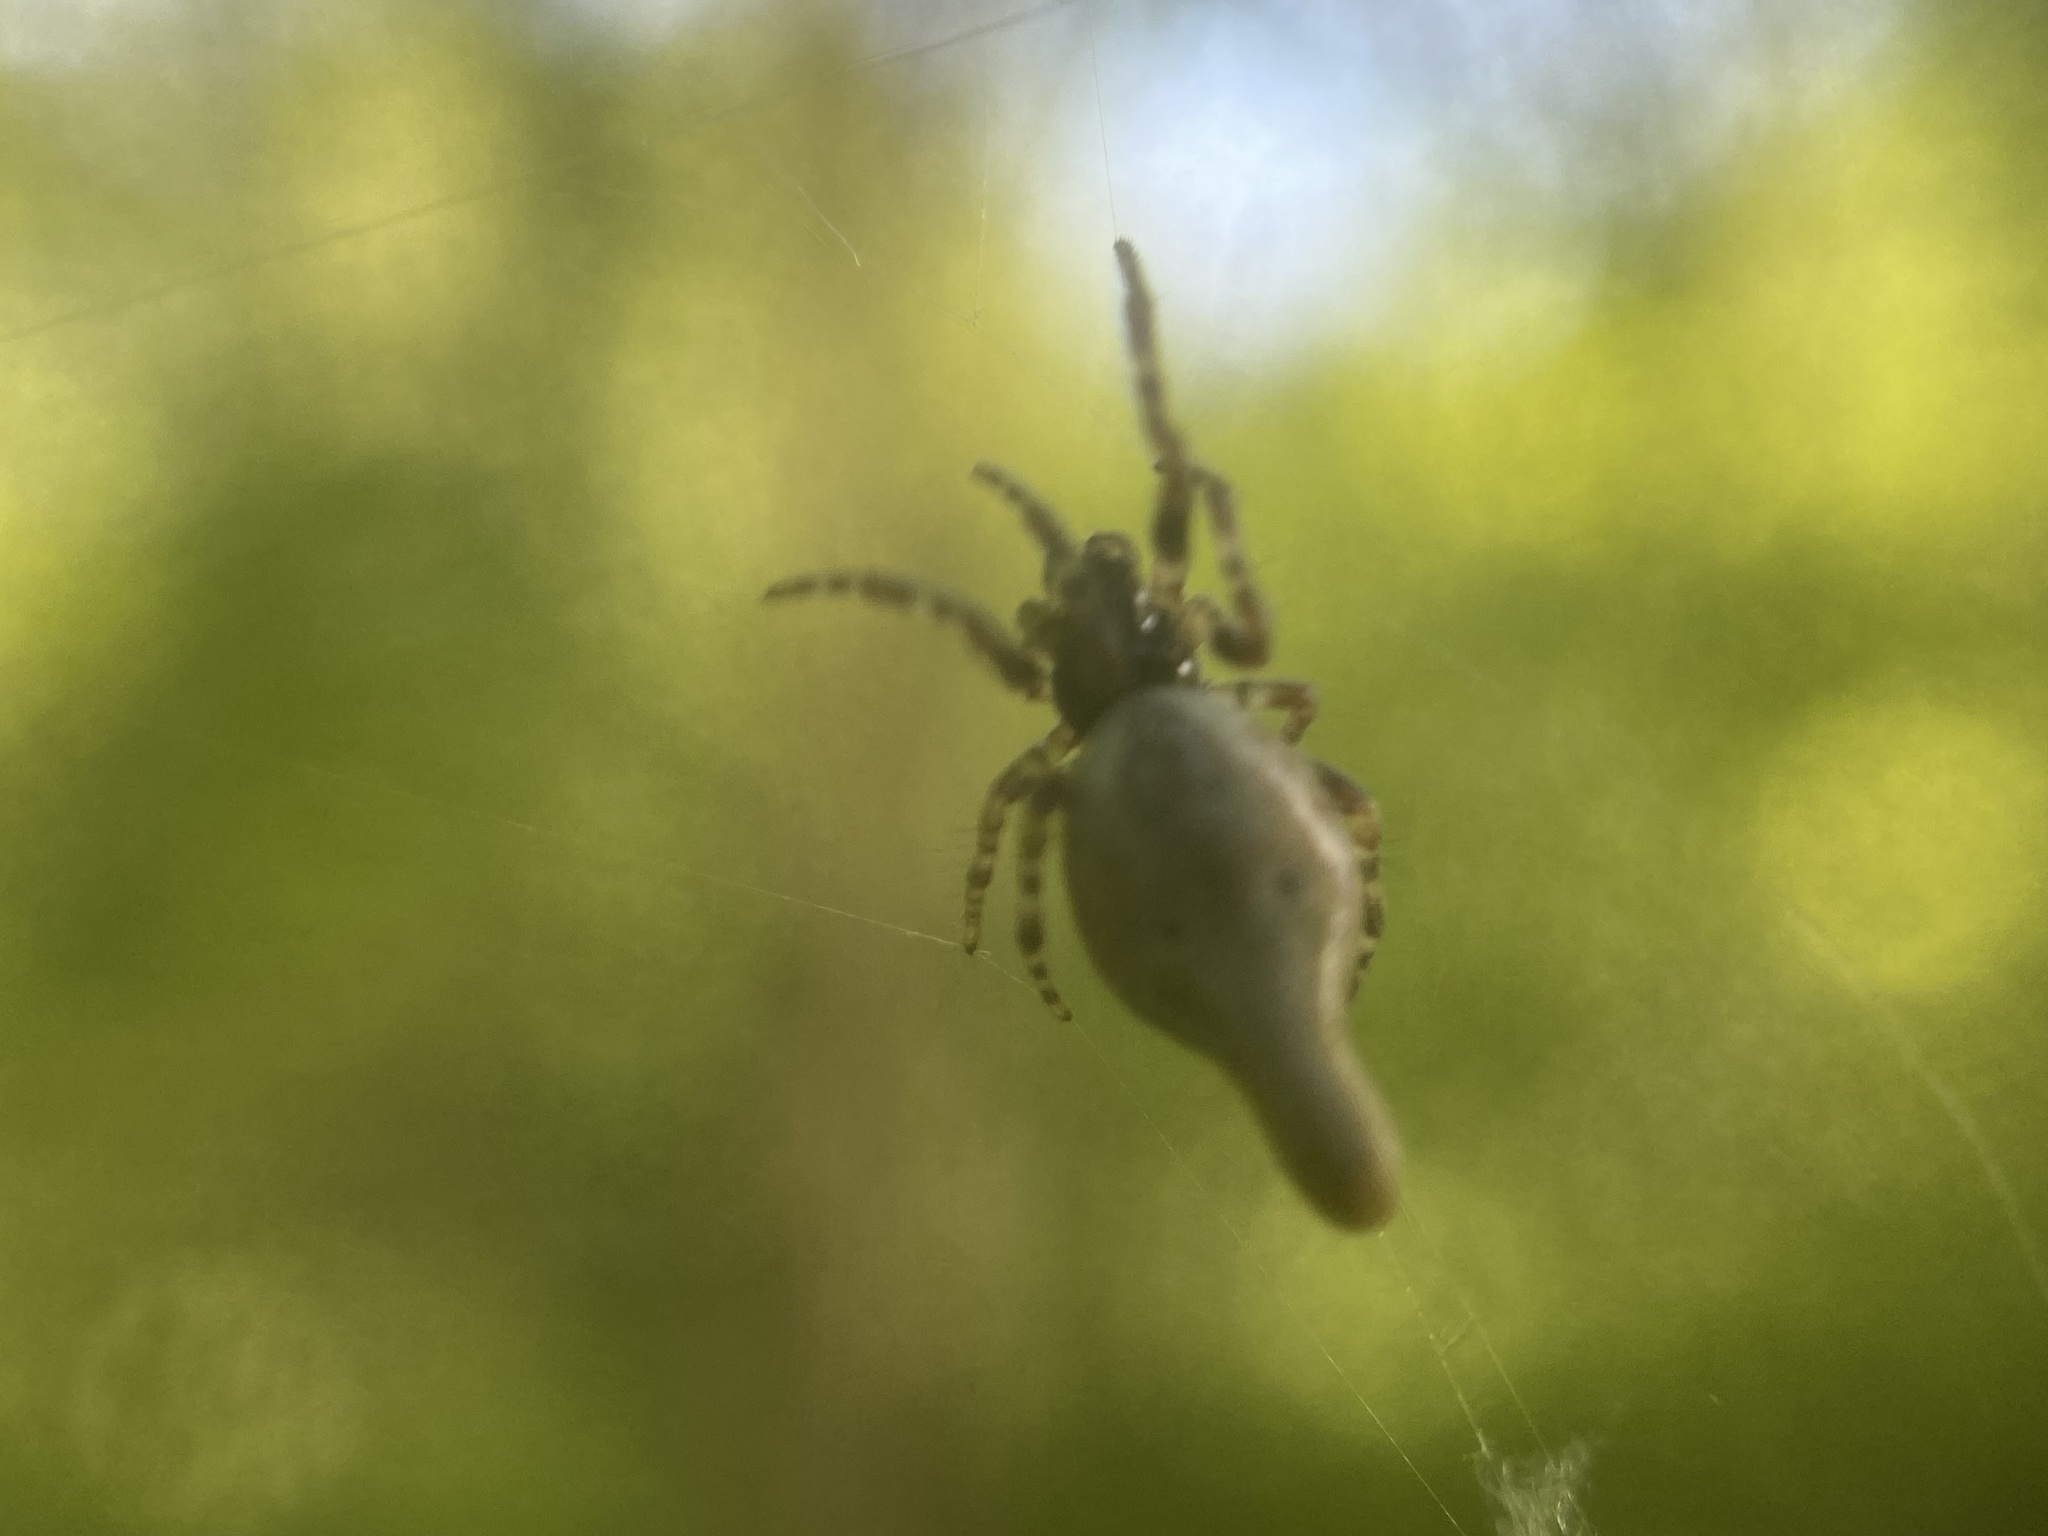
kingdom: Animalia
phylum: Arthropoda
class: Arachnida
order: Araneae
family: Araneidae
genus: Cyclosa
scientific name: Cyclosa conica
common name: Conical trashline orbweaver
